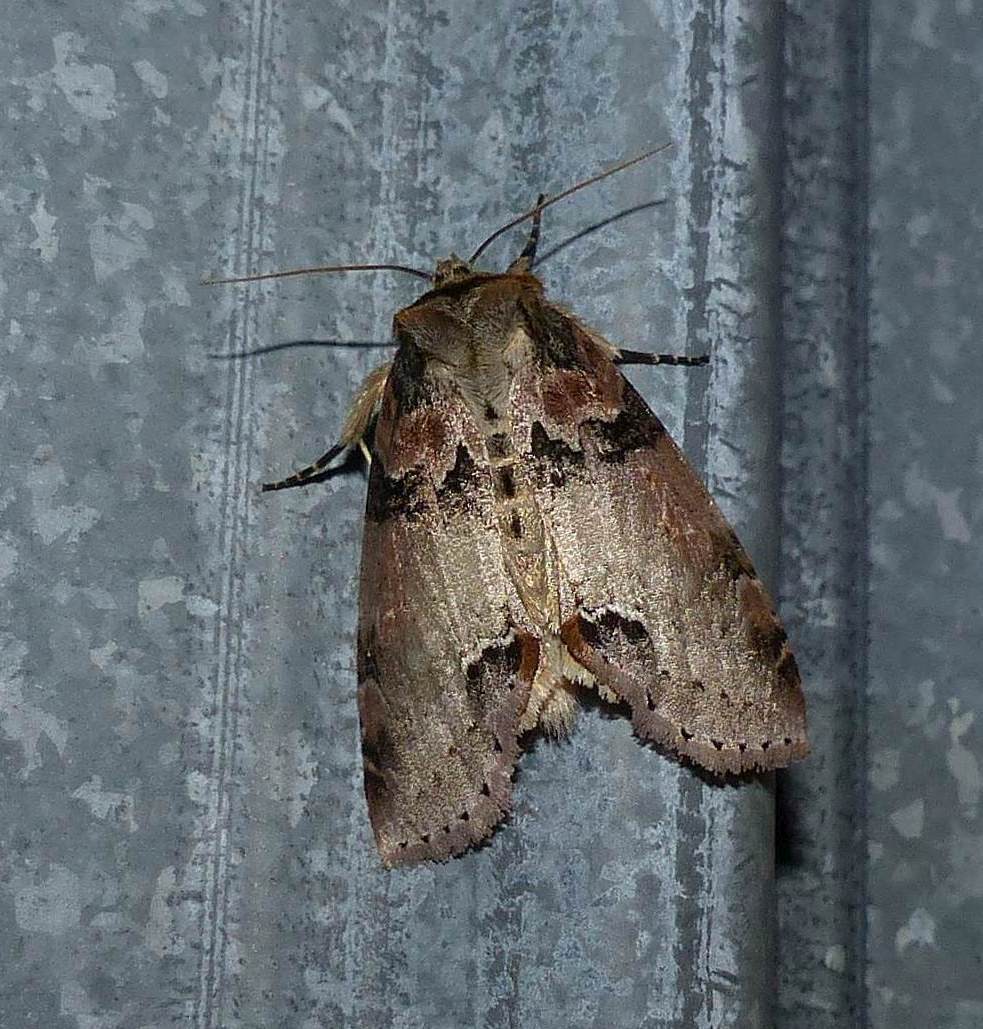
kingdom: Animalia
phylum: Arthropoda
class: Insecta
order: Lepidoptera
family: Drepanidae
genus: Pseudothyatira
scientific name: Pseudothyatira cymatophoroides
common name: Tufted thyatirid moth
